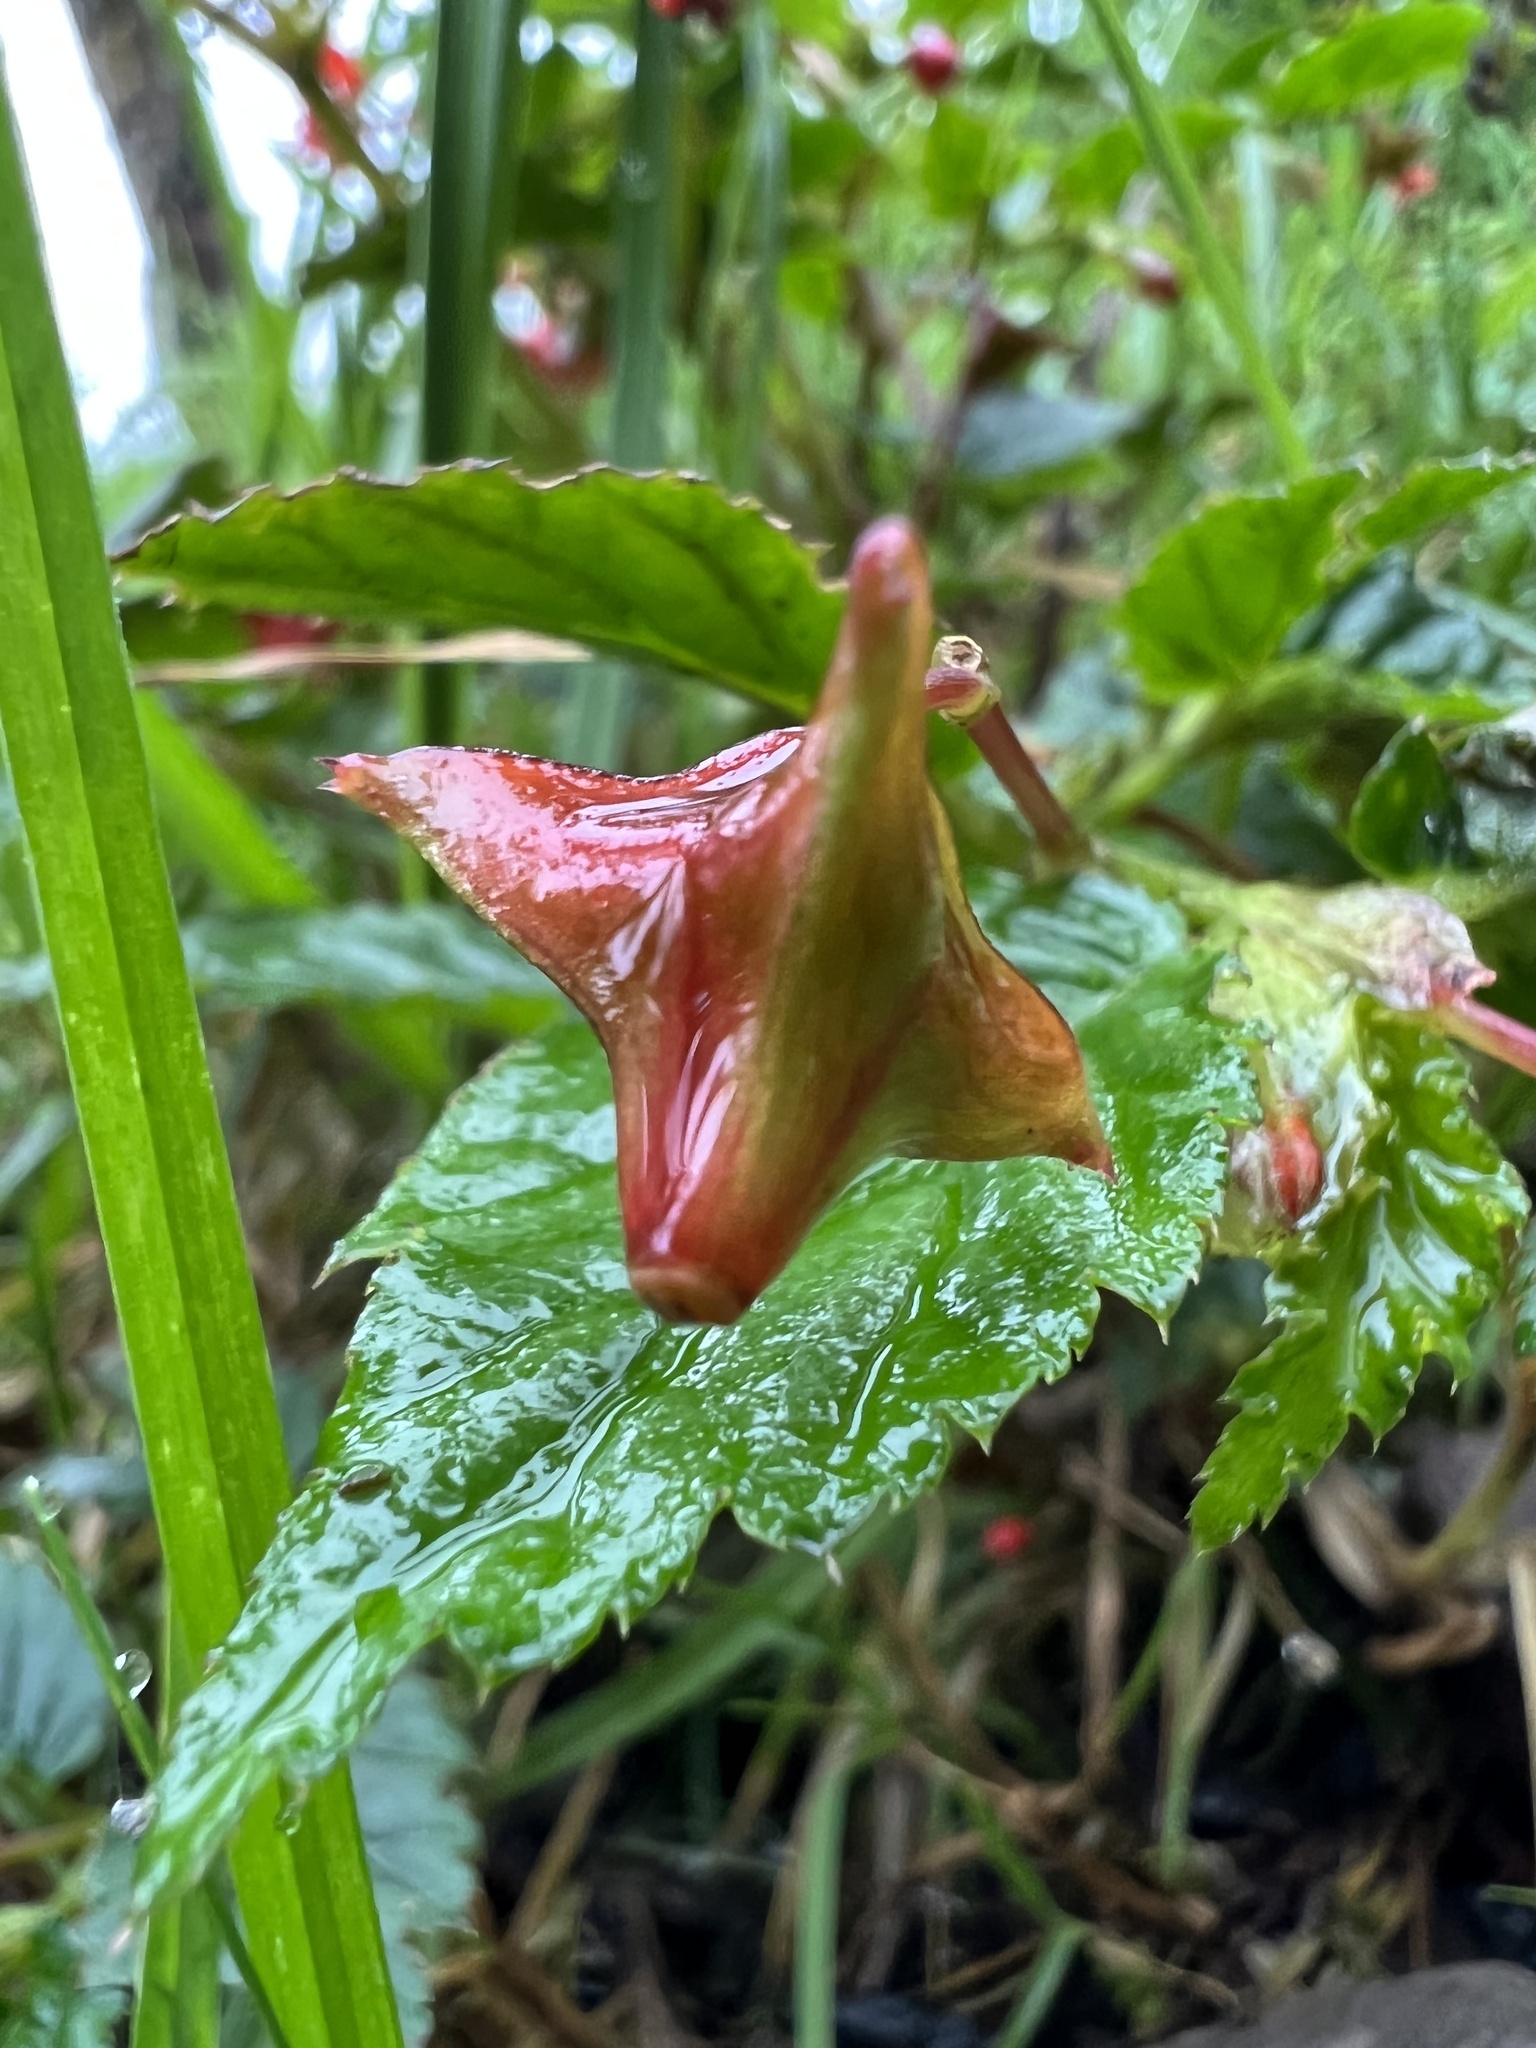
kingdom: Plantae
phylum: Tracheophyta
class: Magnoliopsida
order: Cucurbitales
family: Begoniaceae
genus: Begonia
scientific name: Begonia urticae
